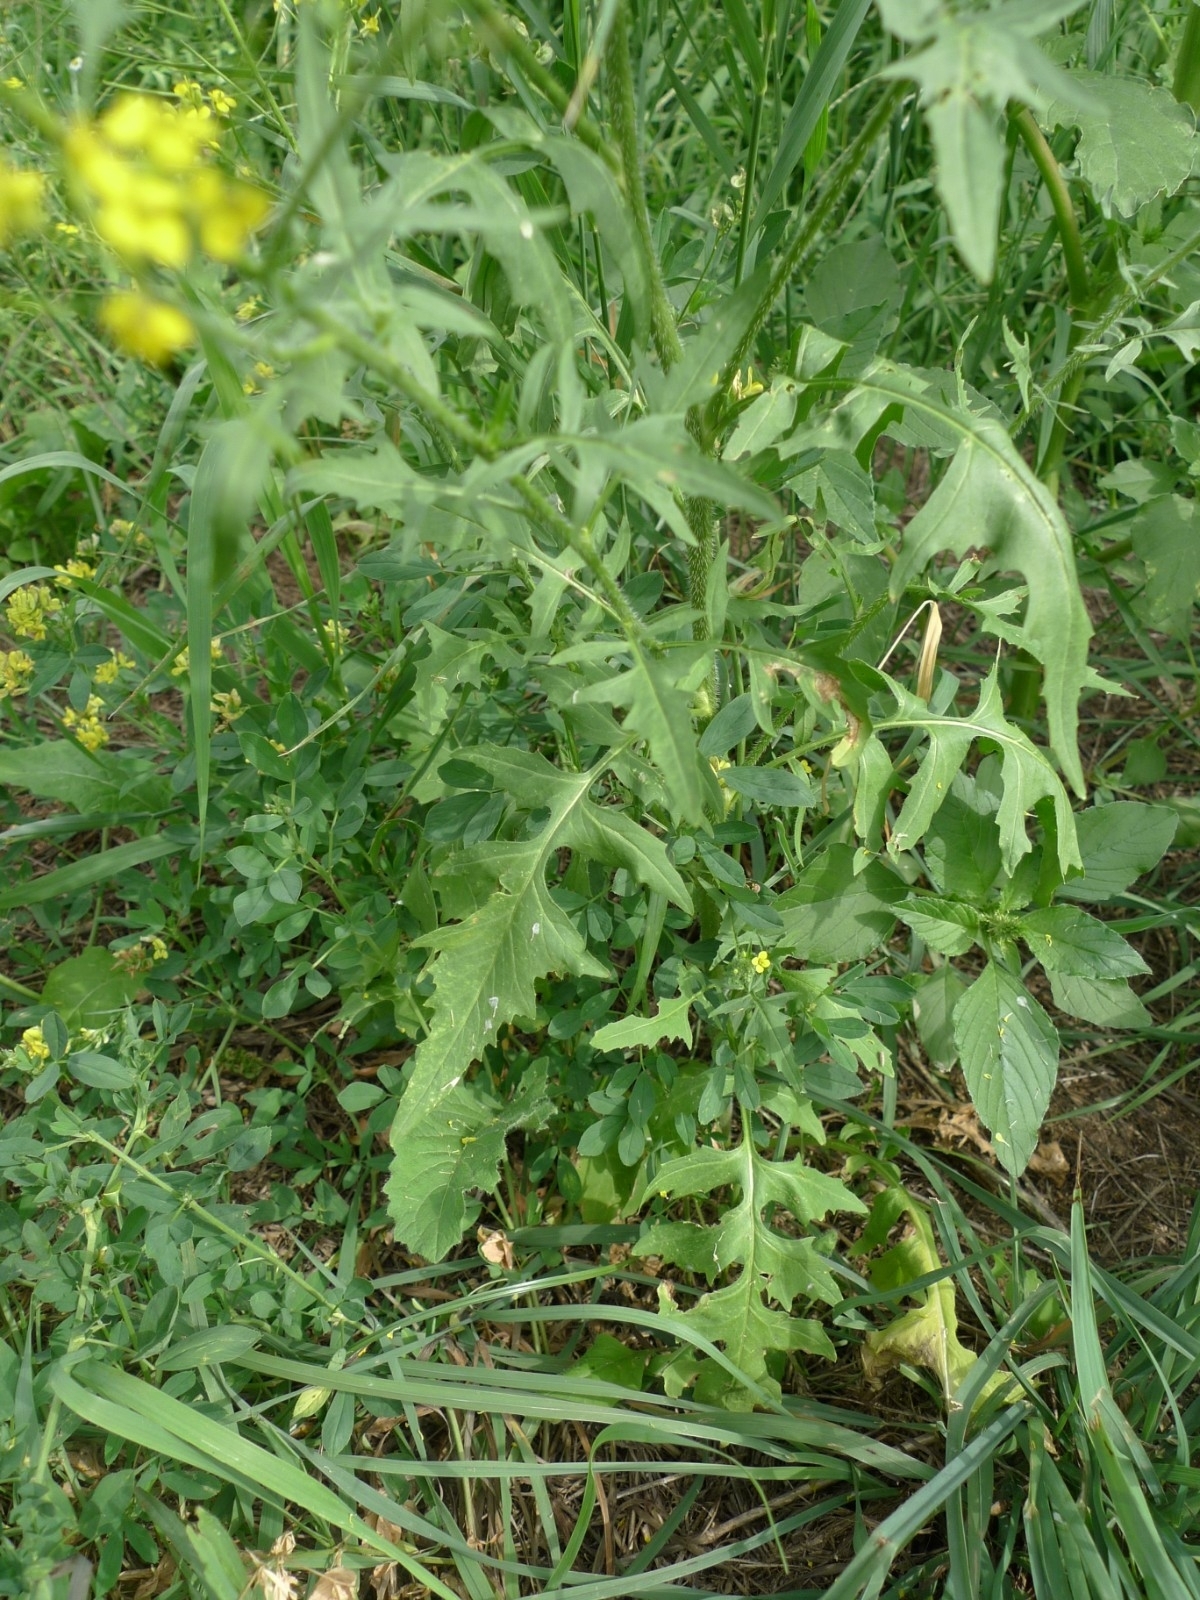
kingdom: Plantae
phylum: Tracheophyta
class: Magnoliopsida
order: Brassicales
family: Brassicaceae
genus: Sisymbrium
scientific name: Sisymbrium loeselii
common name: False london-rocket
